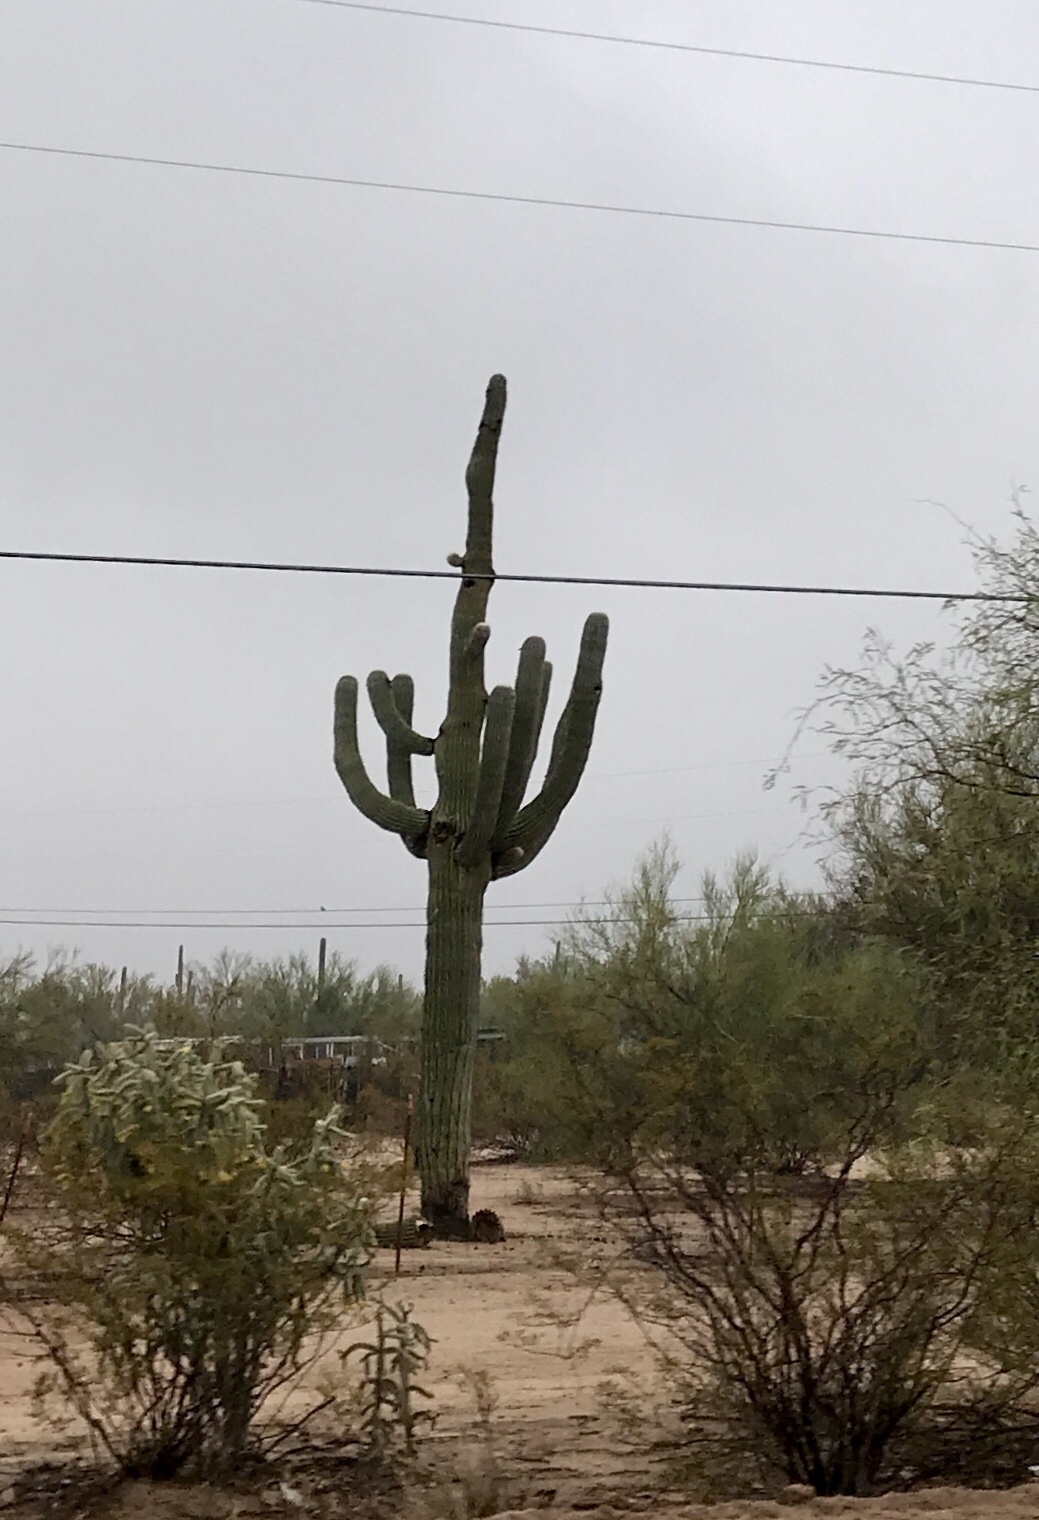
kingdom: Plantae
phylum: Tracheophyta
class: Magnoliopsida
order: Caryophyllales
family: Cactaceae
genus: Carnegiea
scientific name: Carnegiea gigantea
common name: Saguaro
